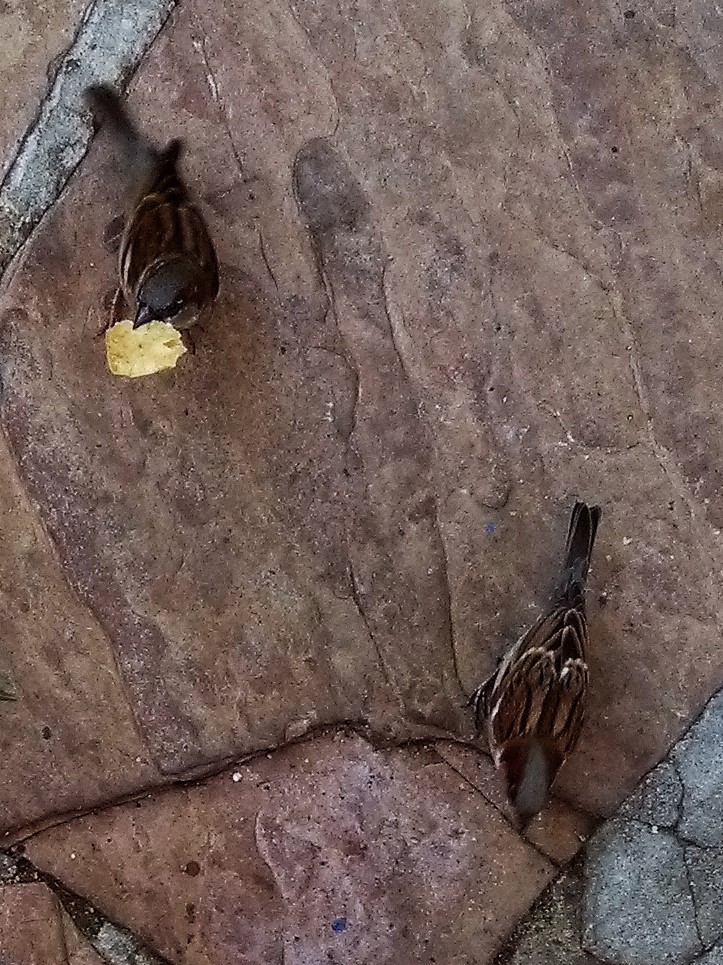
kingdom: Animalia
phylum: Chordata
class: Aves
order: Passeriformes
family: Passeridae
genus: Passer
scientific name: Passer domesticus
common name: House sparrow
